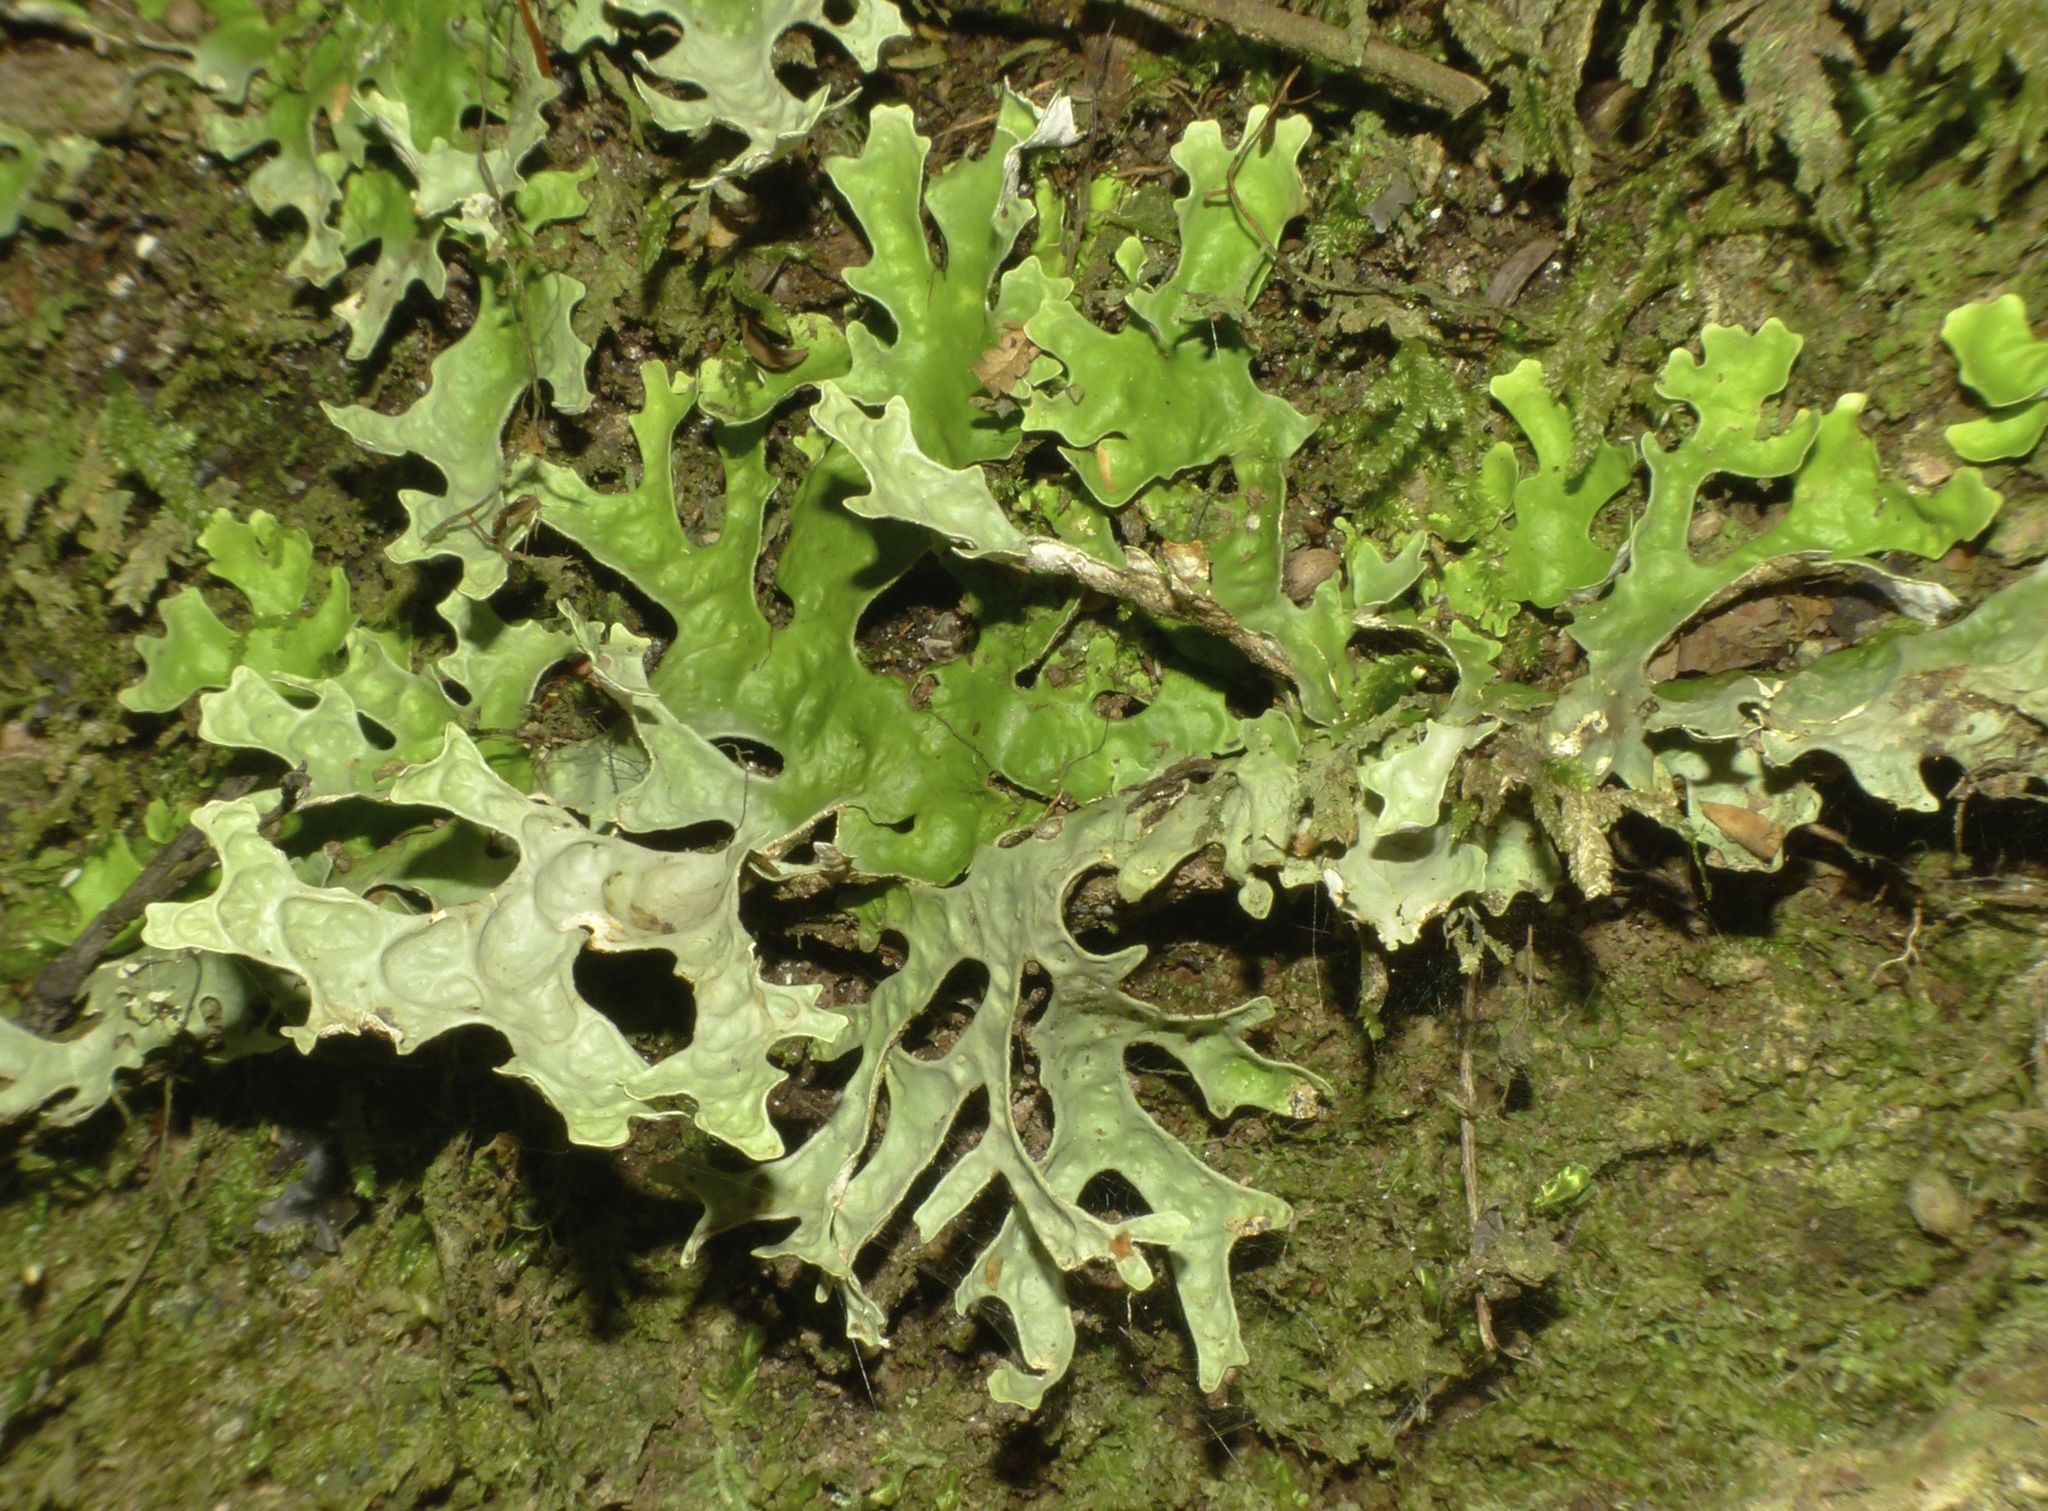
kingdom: Fungi
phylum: Ascomycota
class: Lecanoromycetes
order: Peltigerales
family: Lobariaceae
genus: Pseudocyphellaria
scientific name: Pseudocyphellaria billardierei
